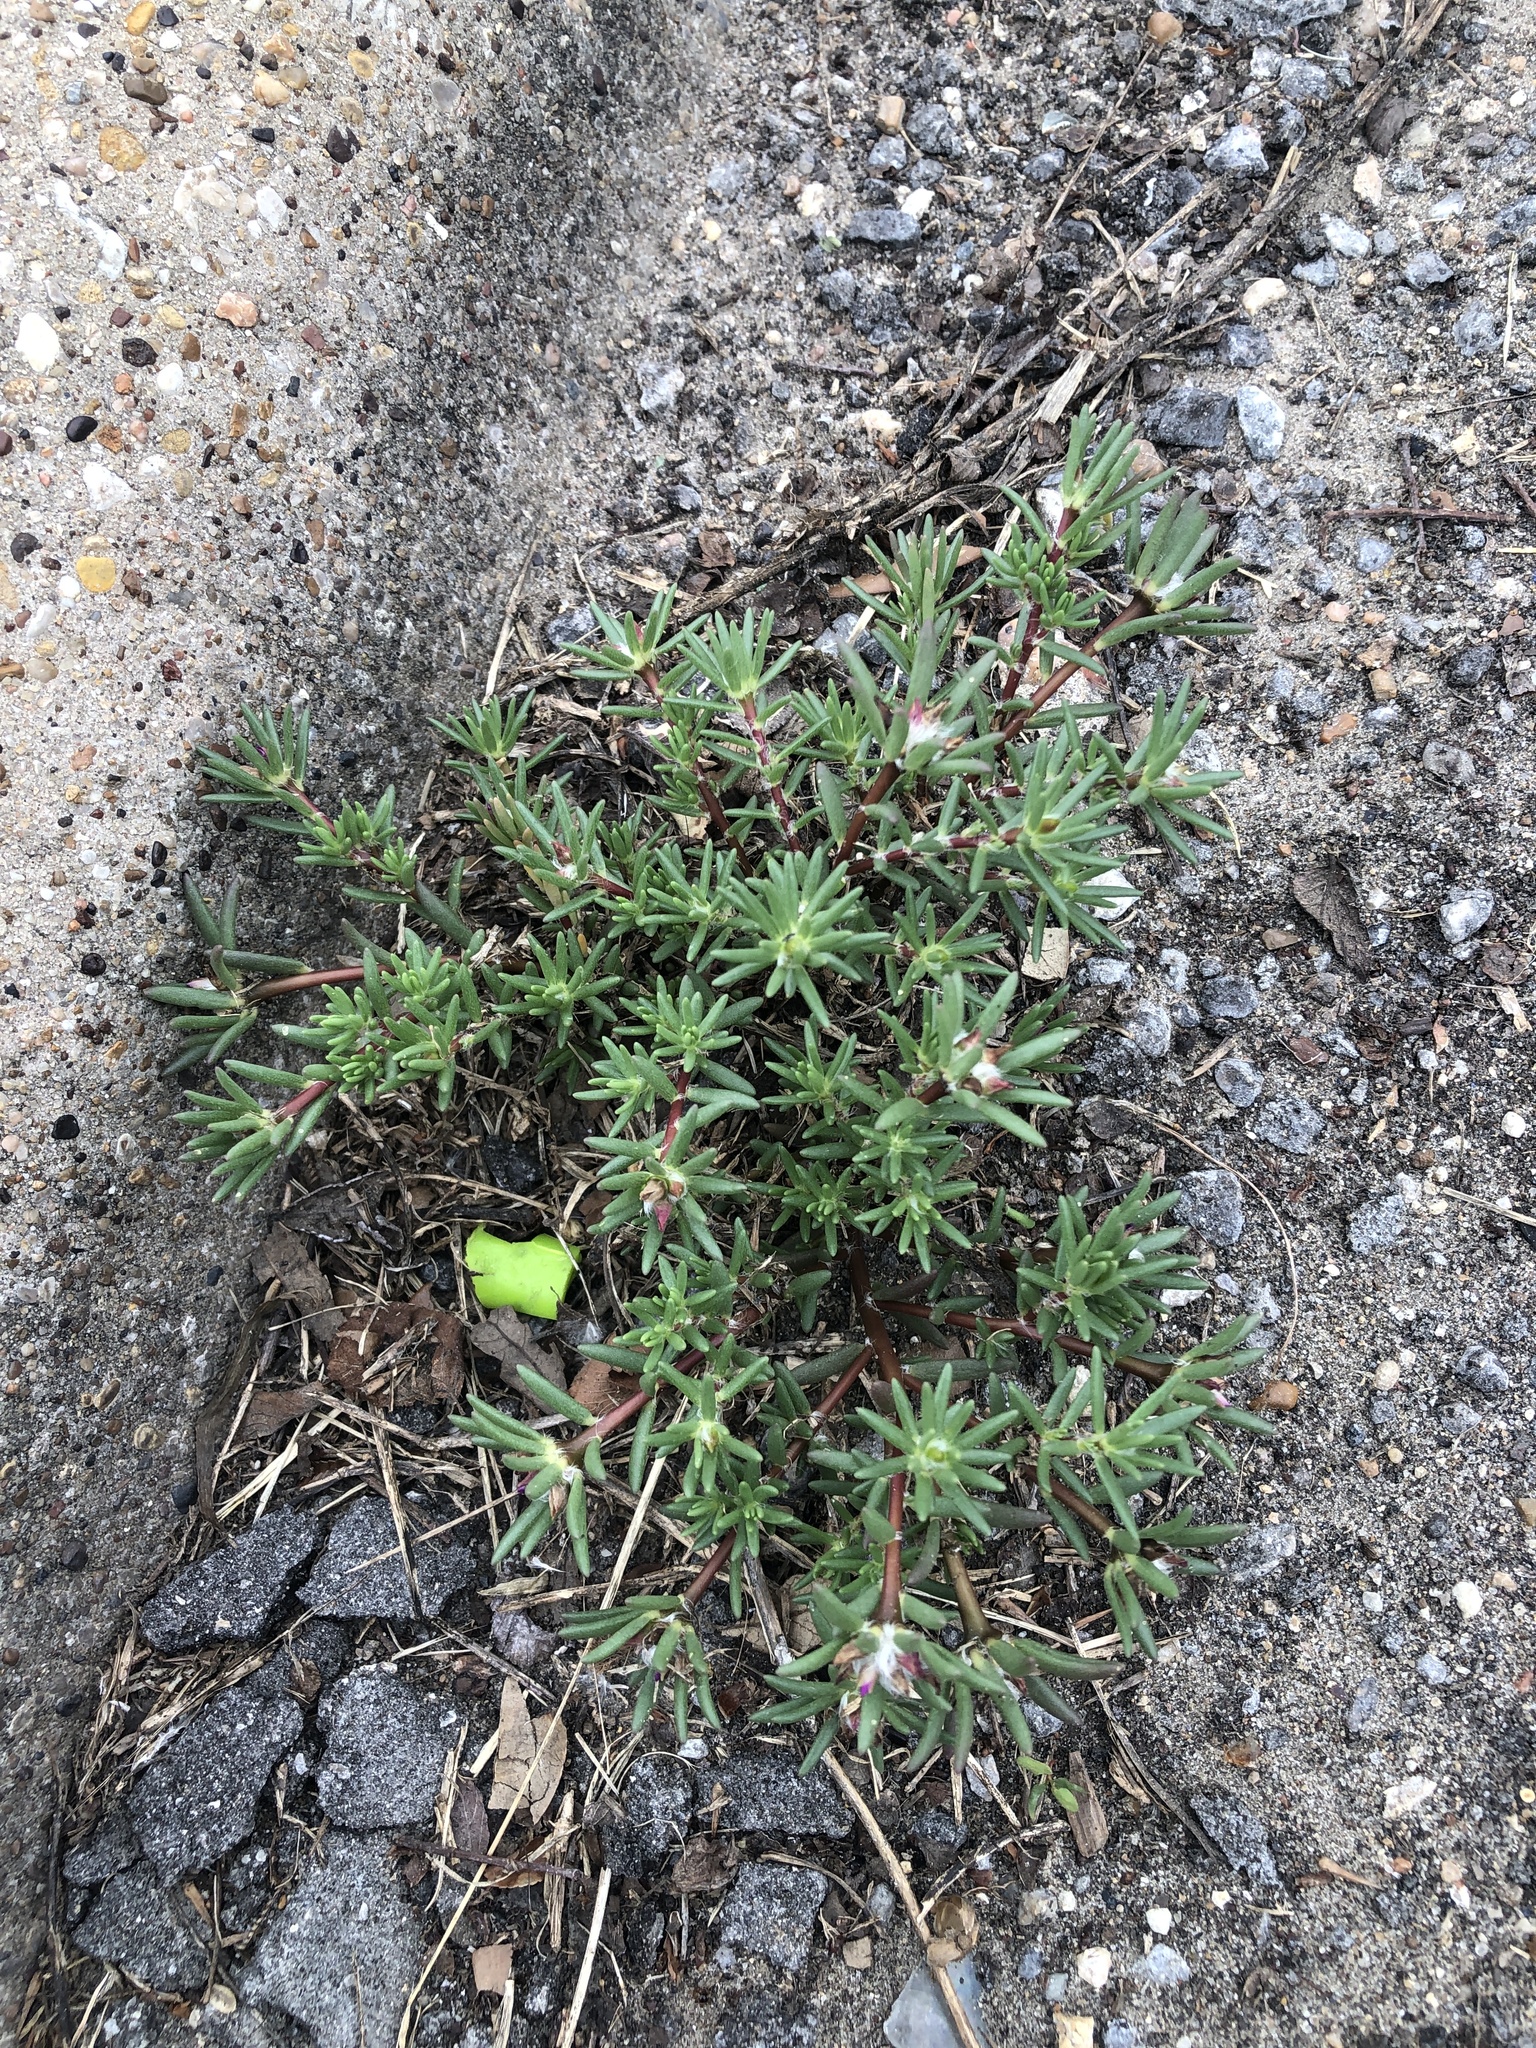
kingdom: Plantae
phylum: Tracheophyta
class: Magnoliopsida
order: Caryophyllales
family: Portulacaceae
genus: Portulaca
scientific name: Portulaca pilosa
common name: Kiss me quick
